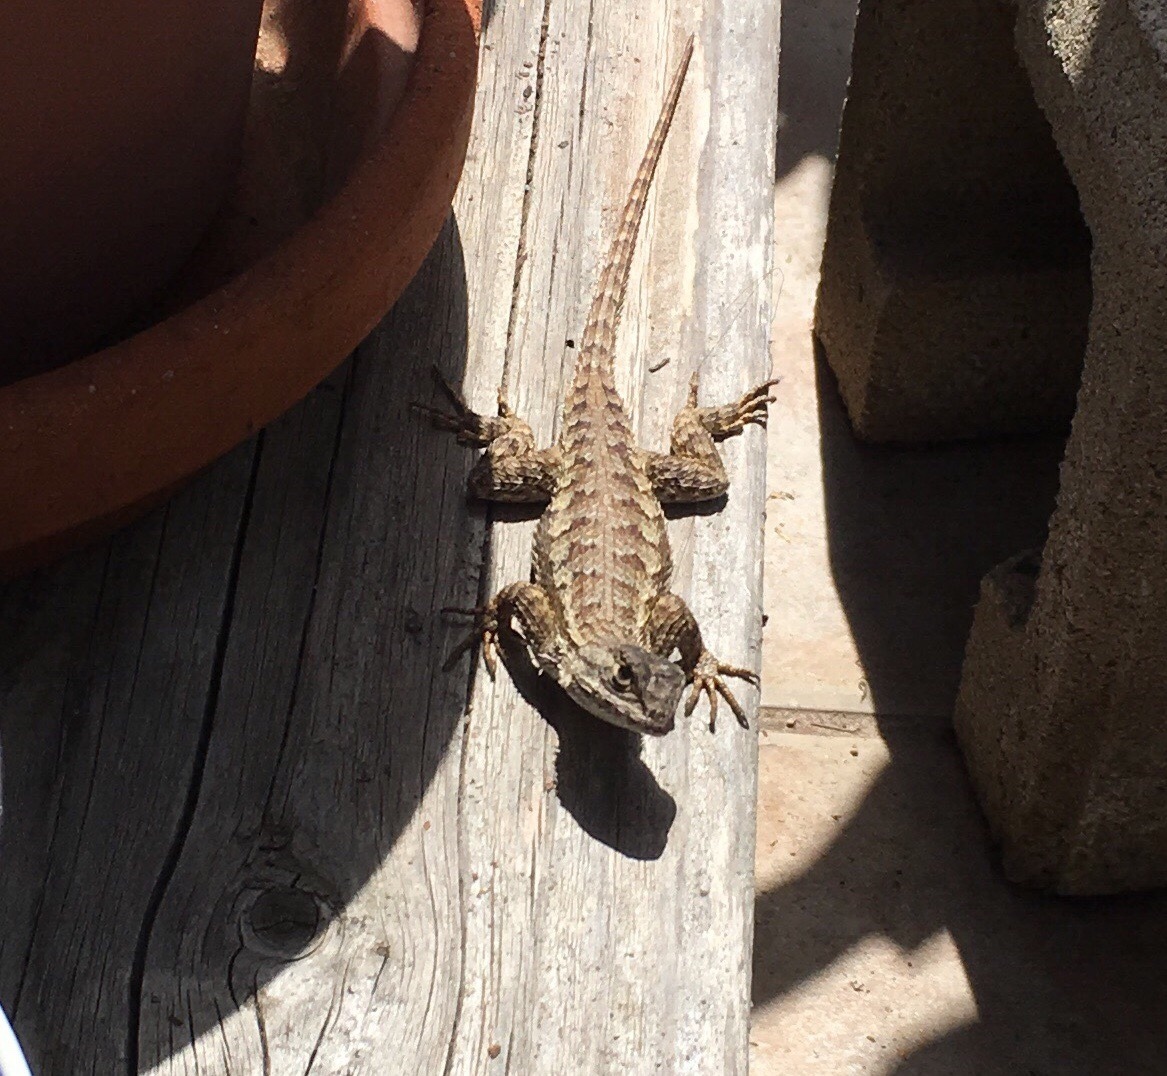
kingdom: Animalia
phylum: Chordata
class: Squamata
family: Phrynosomatidae
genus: Sceloporus
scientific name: Sceloporus occidentalis
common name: Western fence lizard
